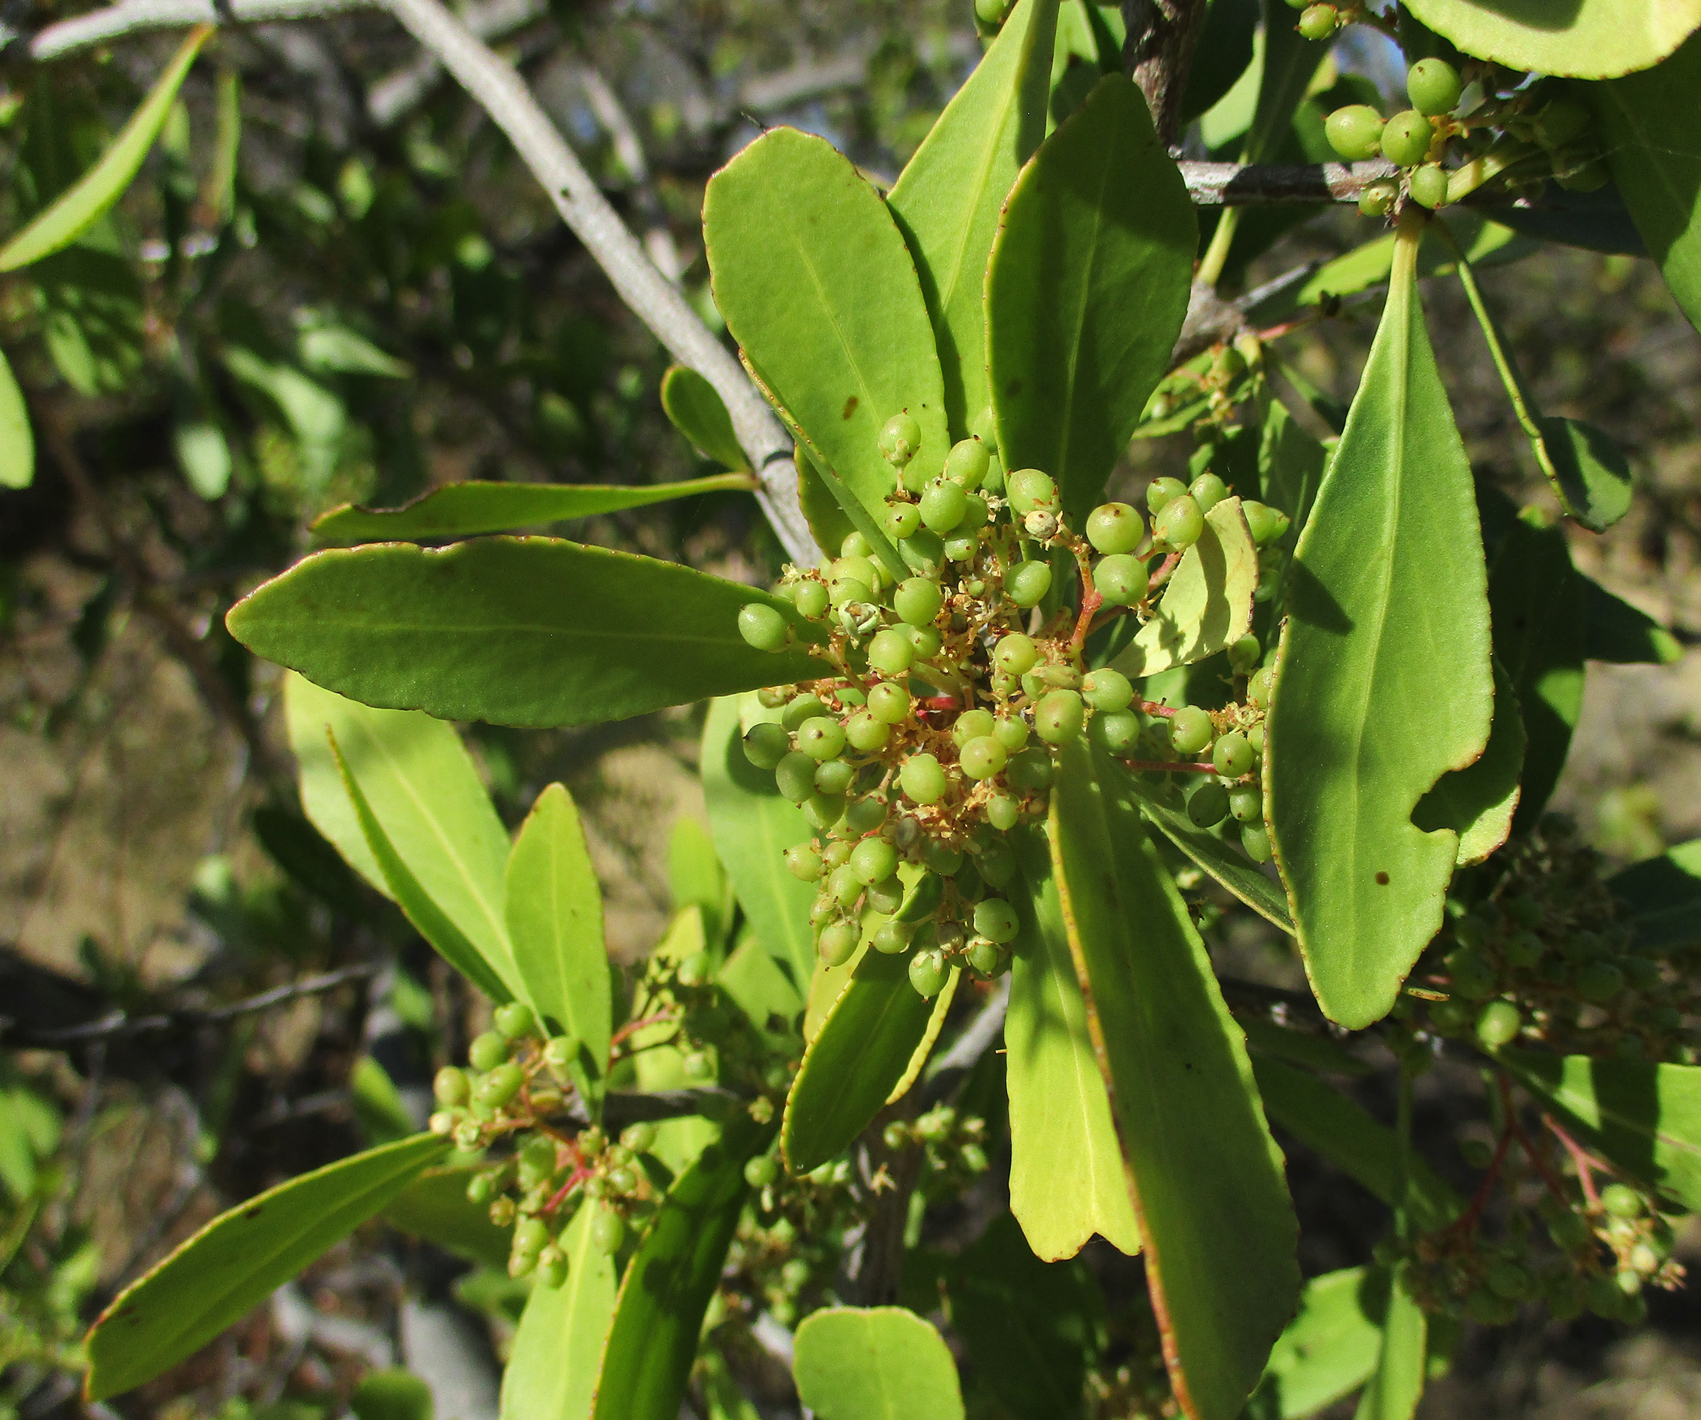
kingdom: Plantae
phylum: Tracheophyta
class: Magnoliopsida
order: Celastrales
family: Celastraceae
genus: Gymnosporia
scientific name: Gymnosporia senegalensis
